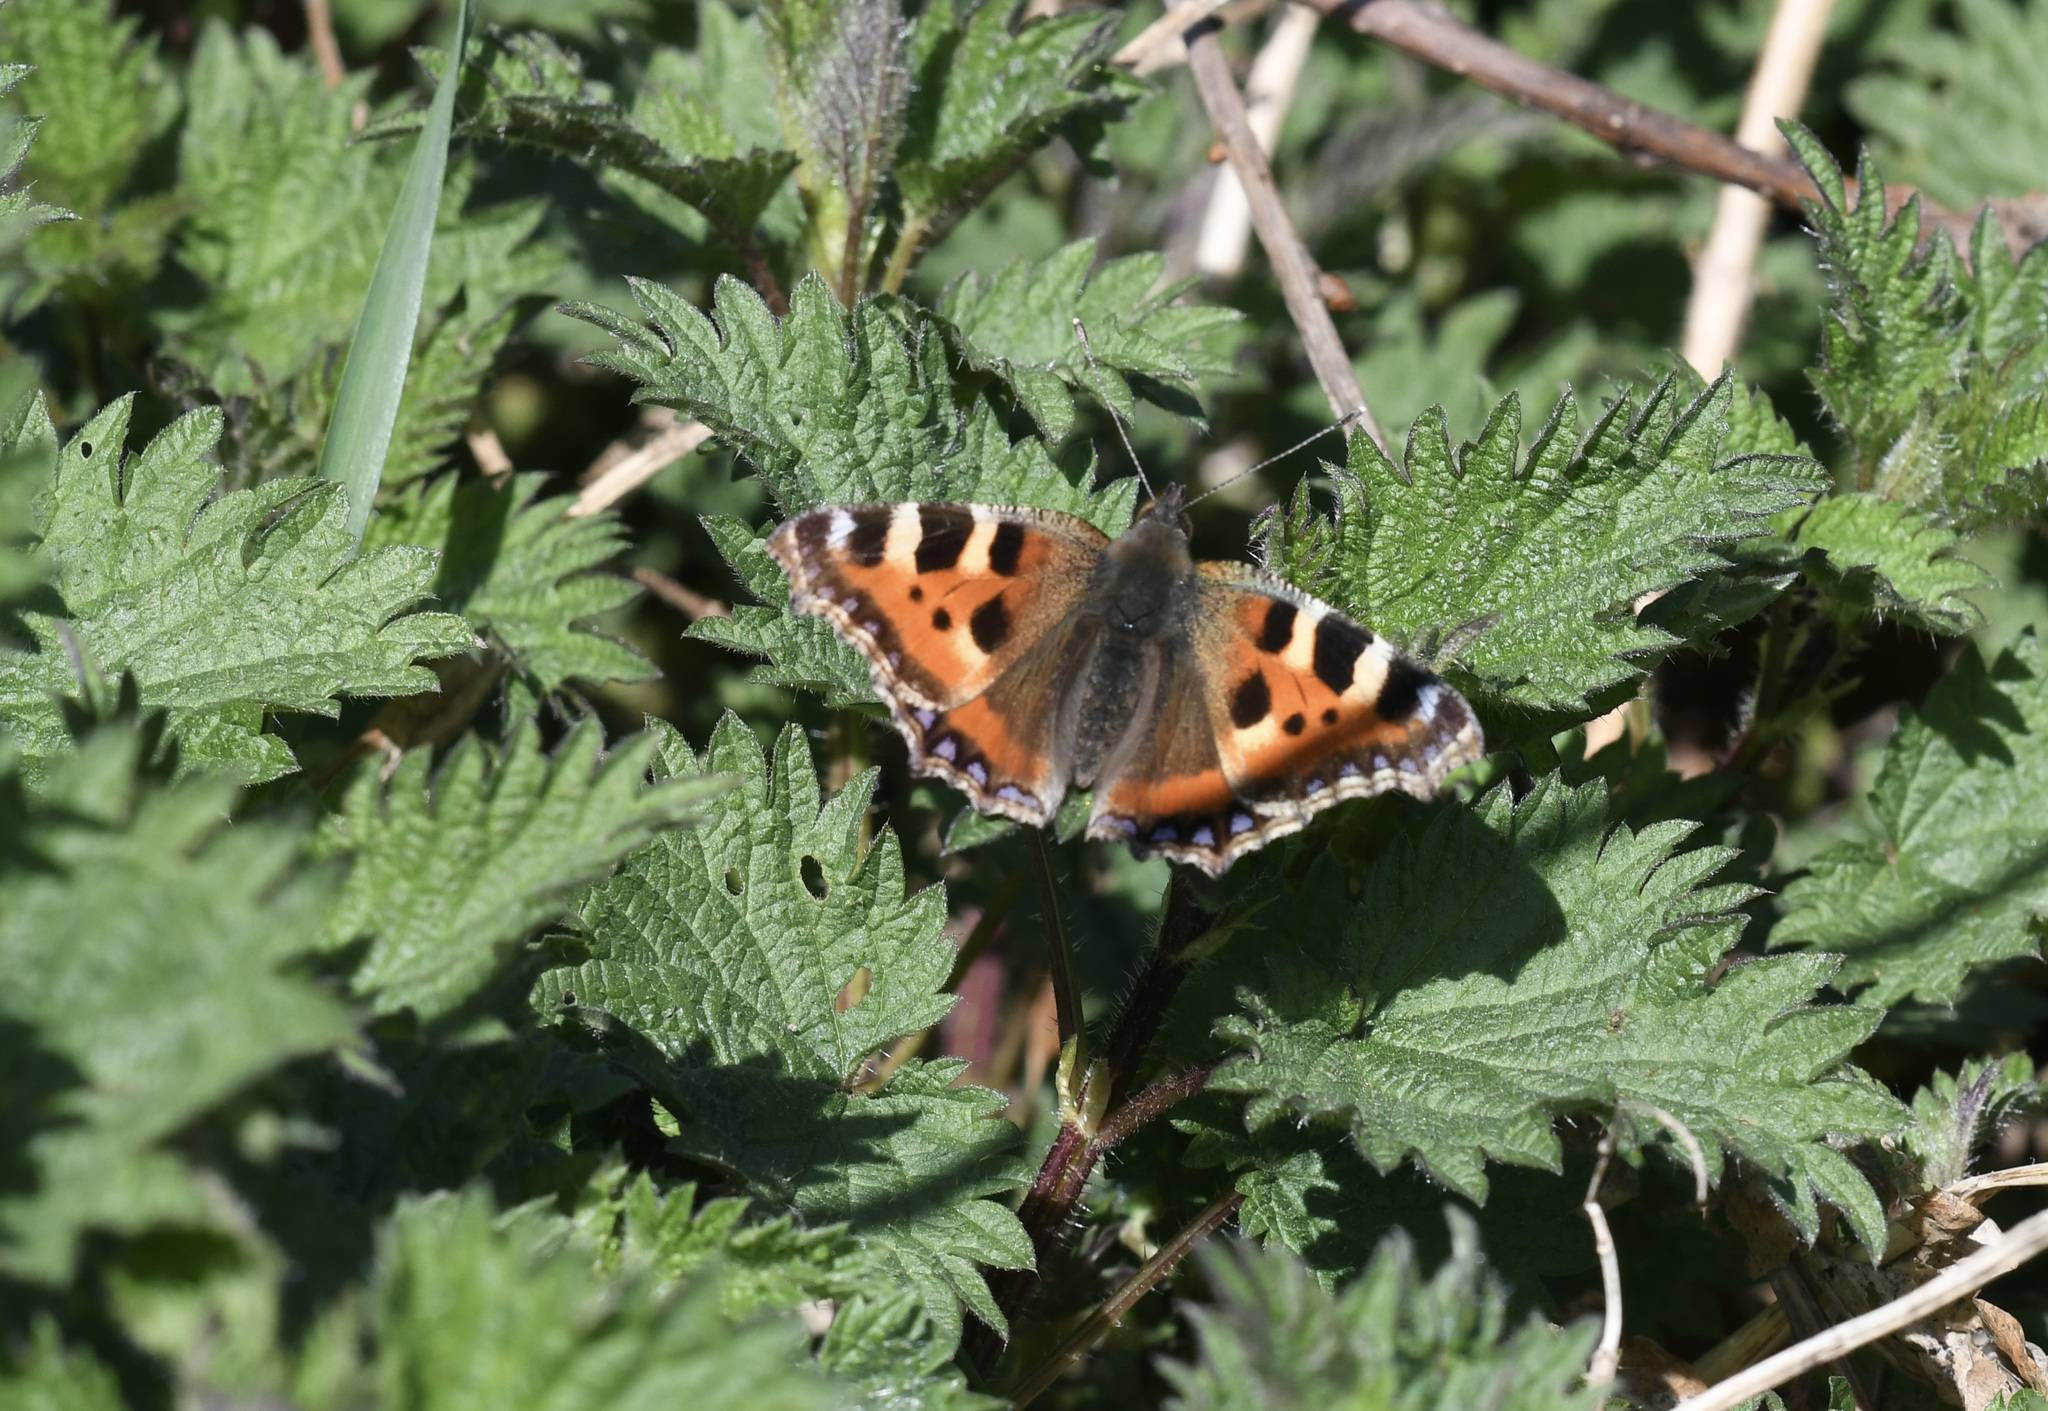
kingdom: Animalia
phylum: Arthropoda
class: Insecta
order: Lepidoptera
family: Nymphalidae
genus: Aglais
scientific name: Aglais urticae
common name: Small tortoiseshell
